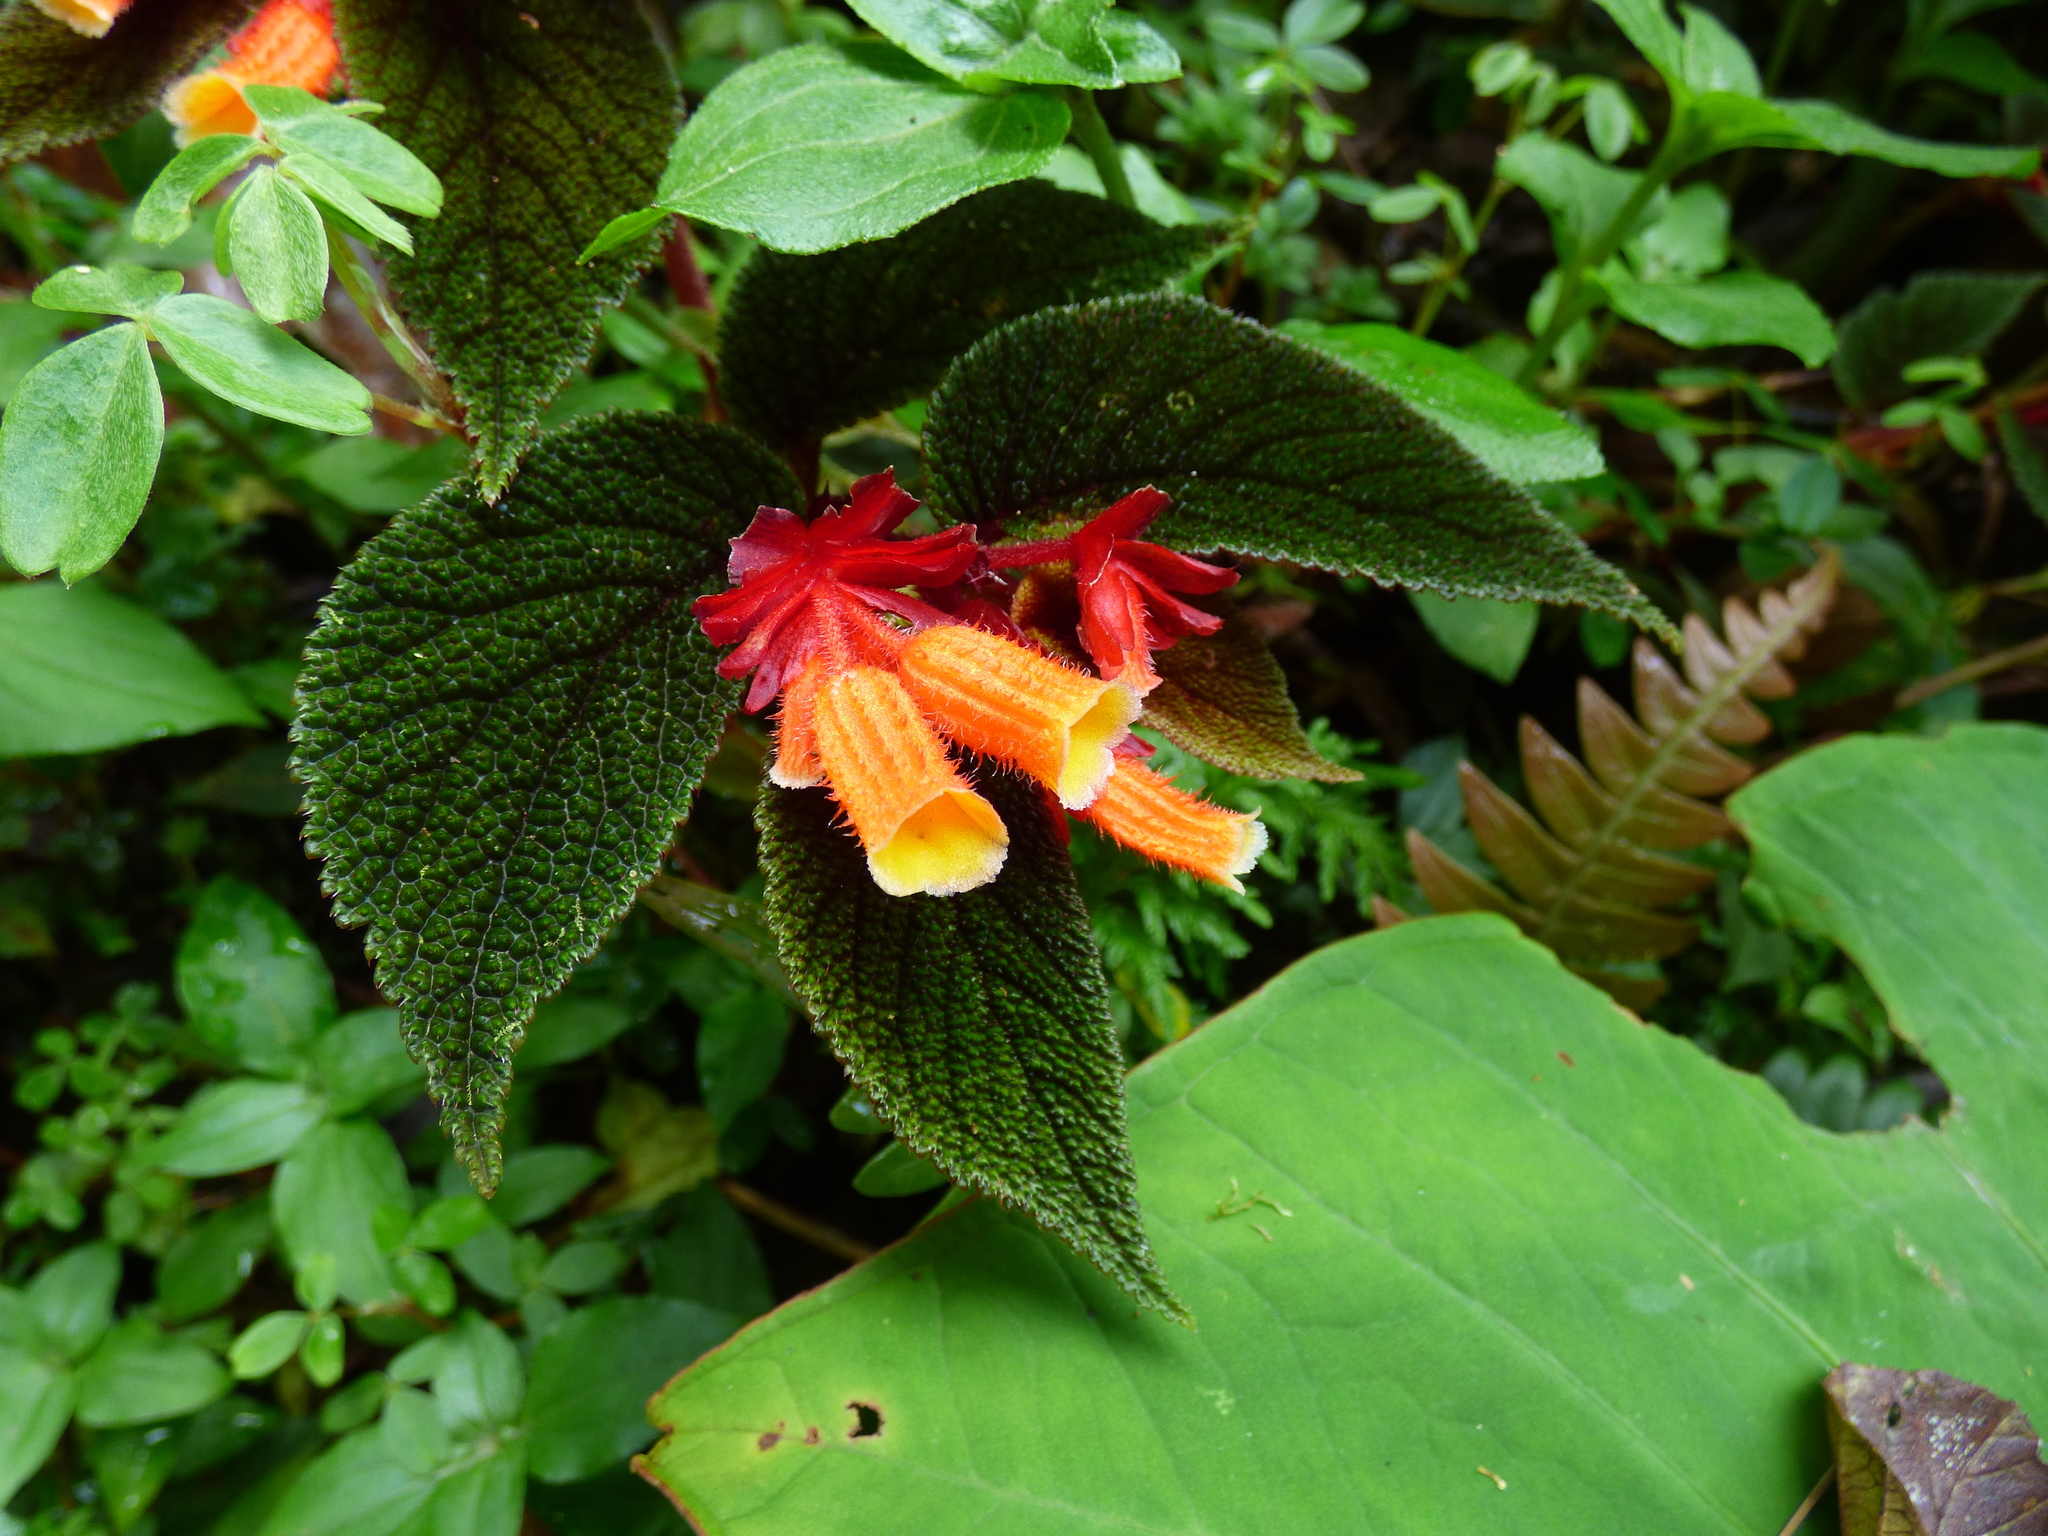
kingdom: Plantae
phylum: Tracheophyta
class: Magnoliopsida
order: Cucurbitales
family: Begoniaceae
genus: Begonia
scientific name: Begonia lehmannii
